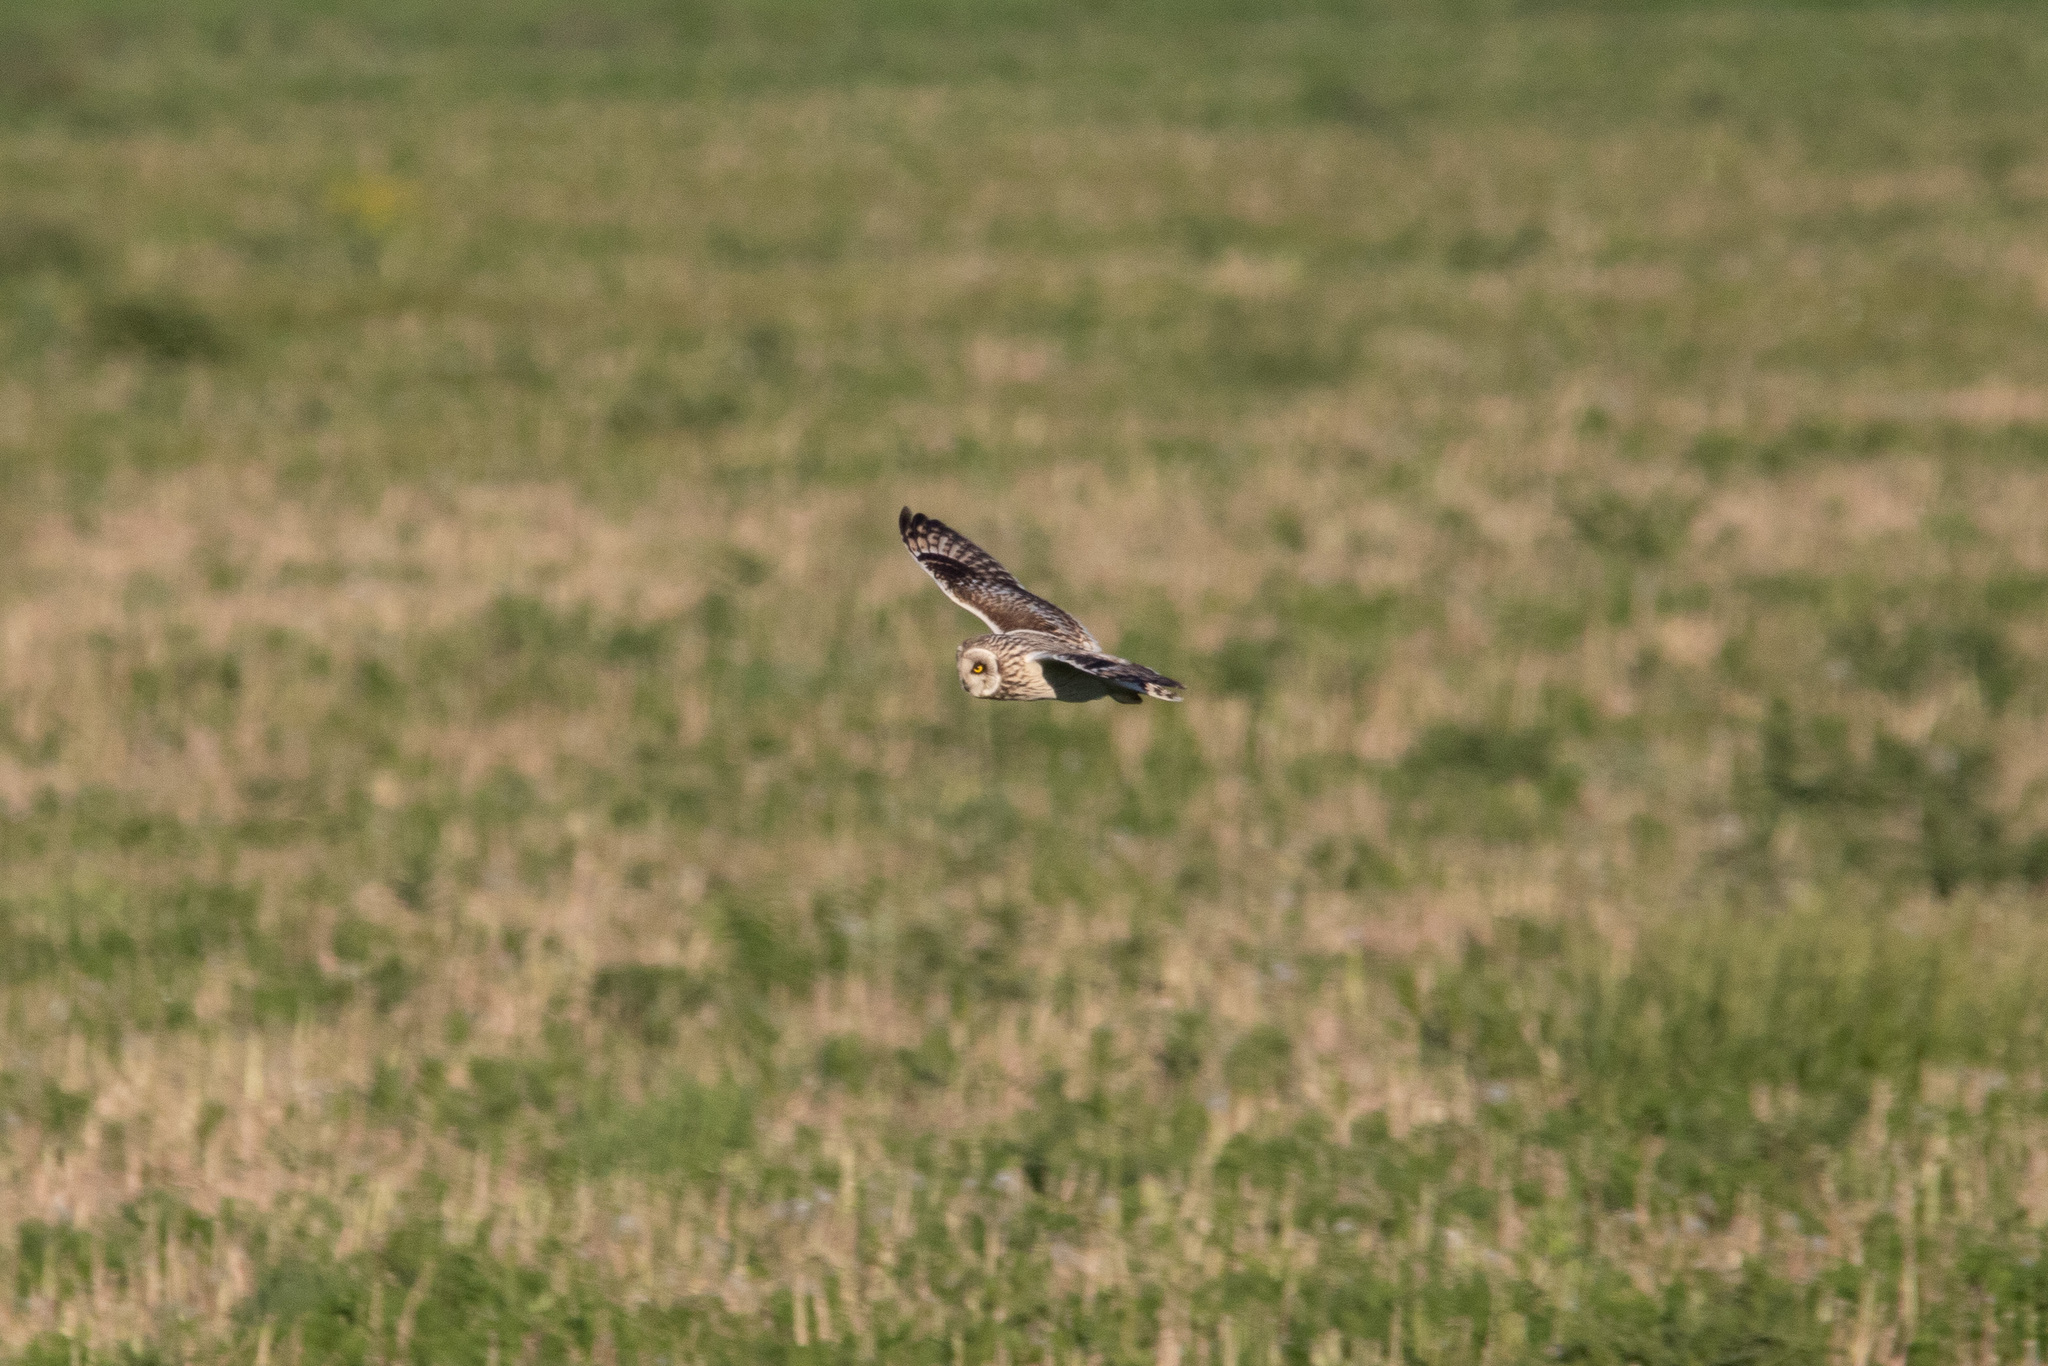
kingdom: Animalia
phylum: Chordata
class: Aves
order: Strigiformes
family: Strigidae
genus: Asio
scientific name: Asio flammeus
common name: Short-eared owl
